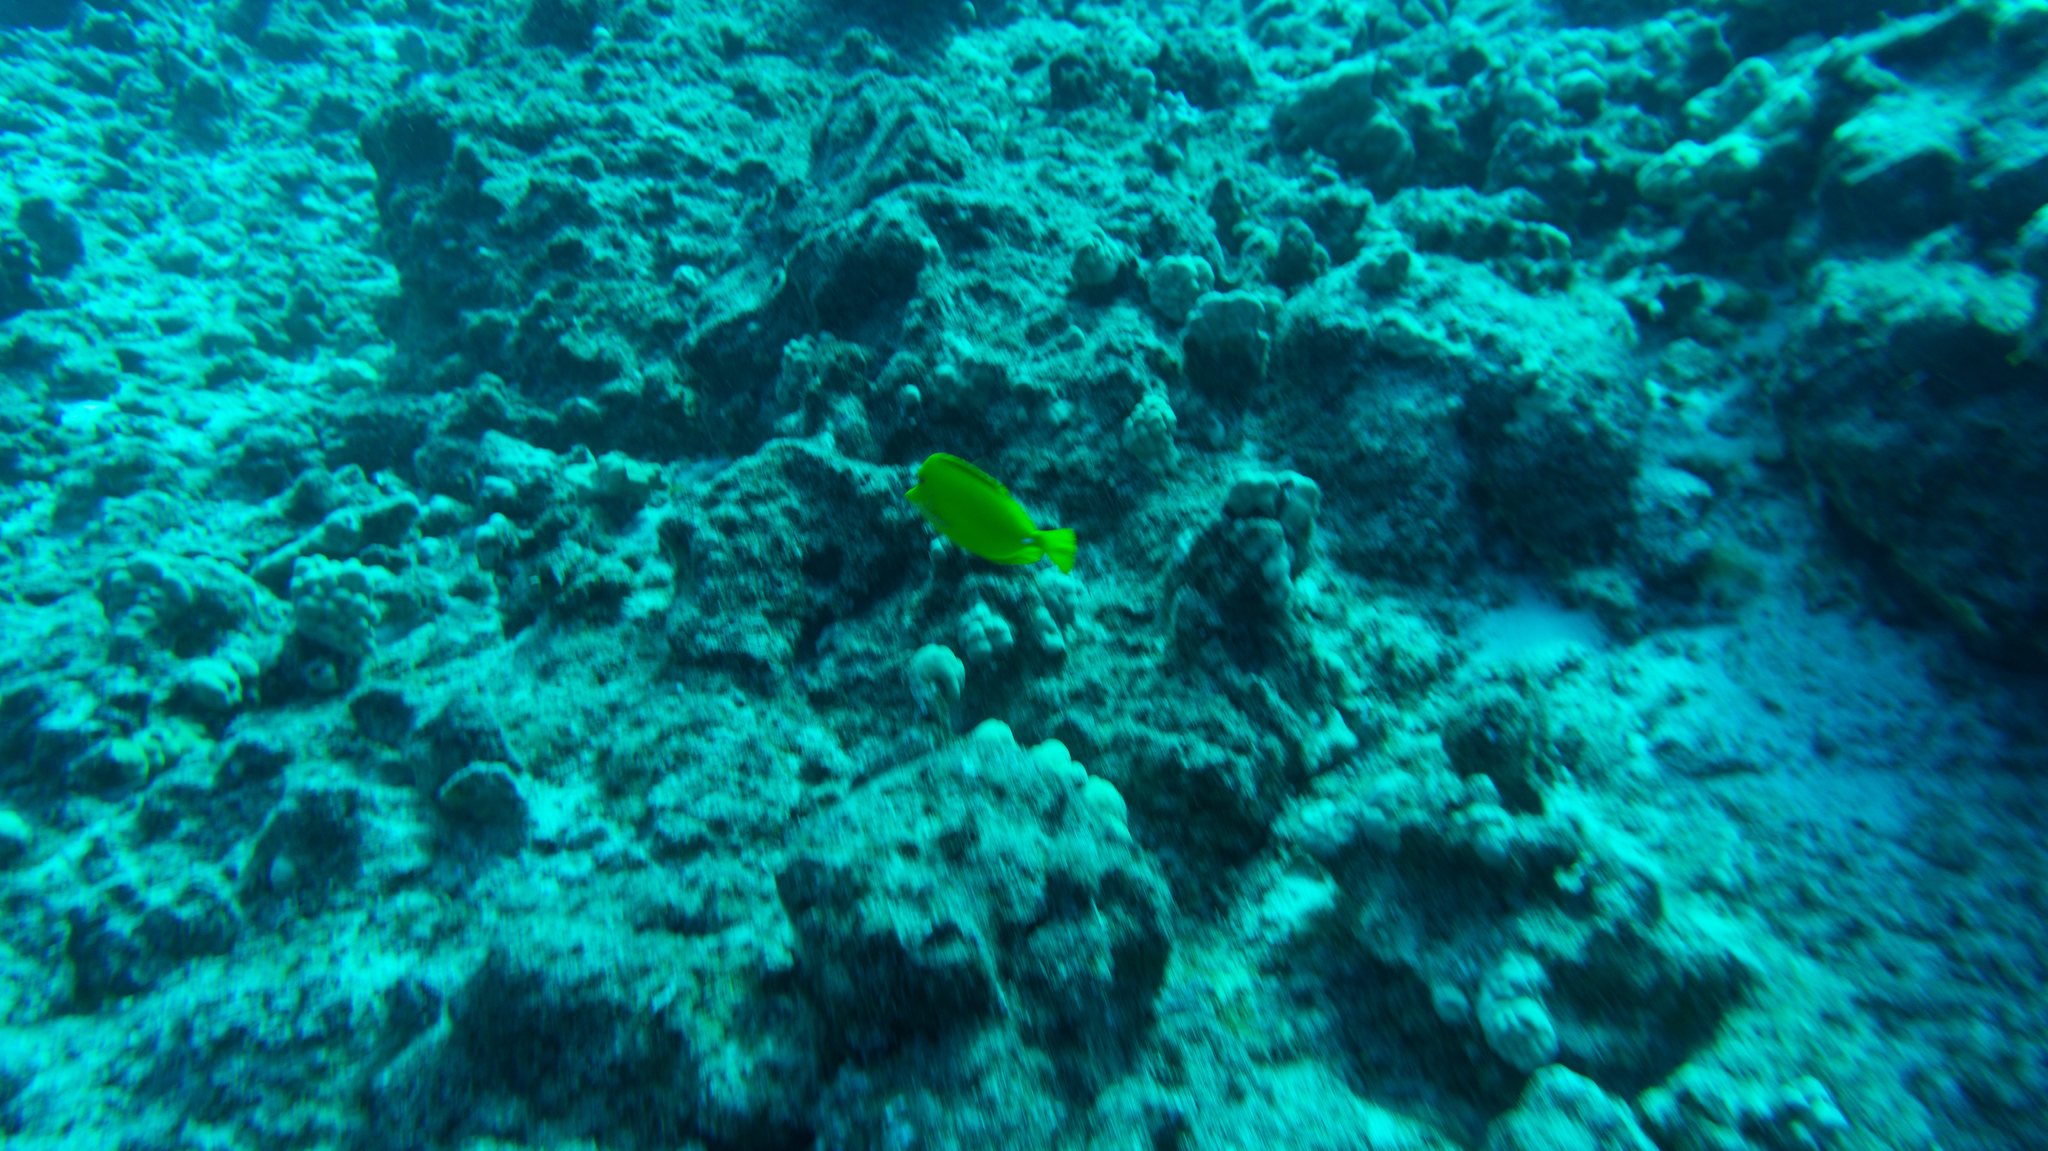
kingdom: Animalia
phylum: Chordata
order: Perciformes
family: Acanthuridae
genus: Zebrasoma
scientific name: Zebrasoma flavescens
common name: Yellow tang
